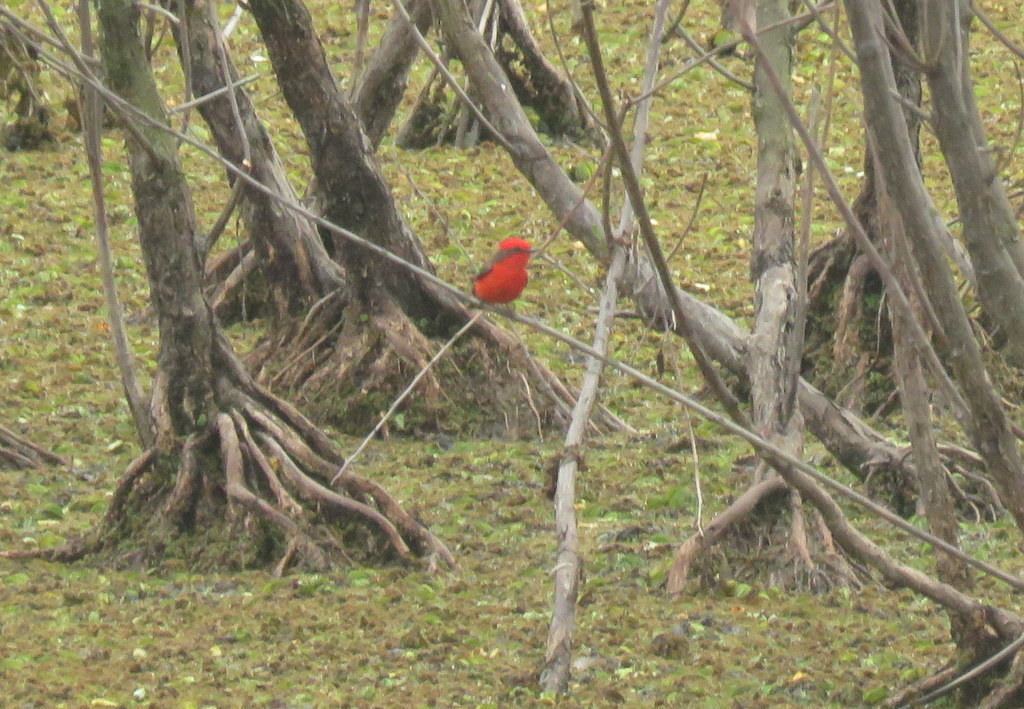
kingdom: Animalia
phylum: Chordata
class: Aves
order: Passeriformes
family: Tyrannidae
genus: Pyrocephalus
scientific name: Pyrocephalus rubinus
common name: Vermilion flycatcher
